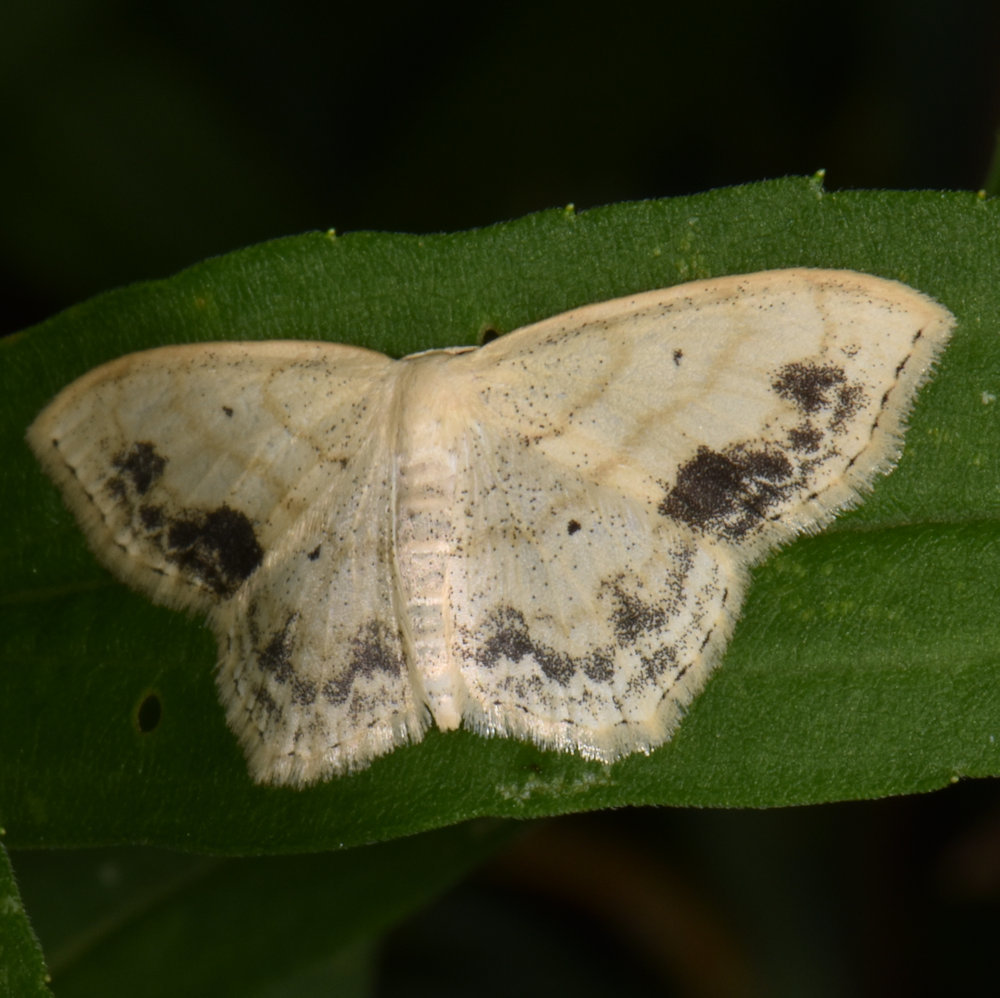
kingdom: Animalia
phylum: Arthropoda
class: Insecta
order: Lepidoptera
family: Geometridae
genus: Scopula
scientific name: Scopula limboundata
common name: Large lace border
